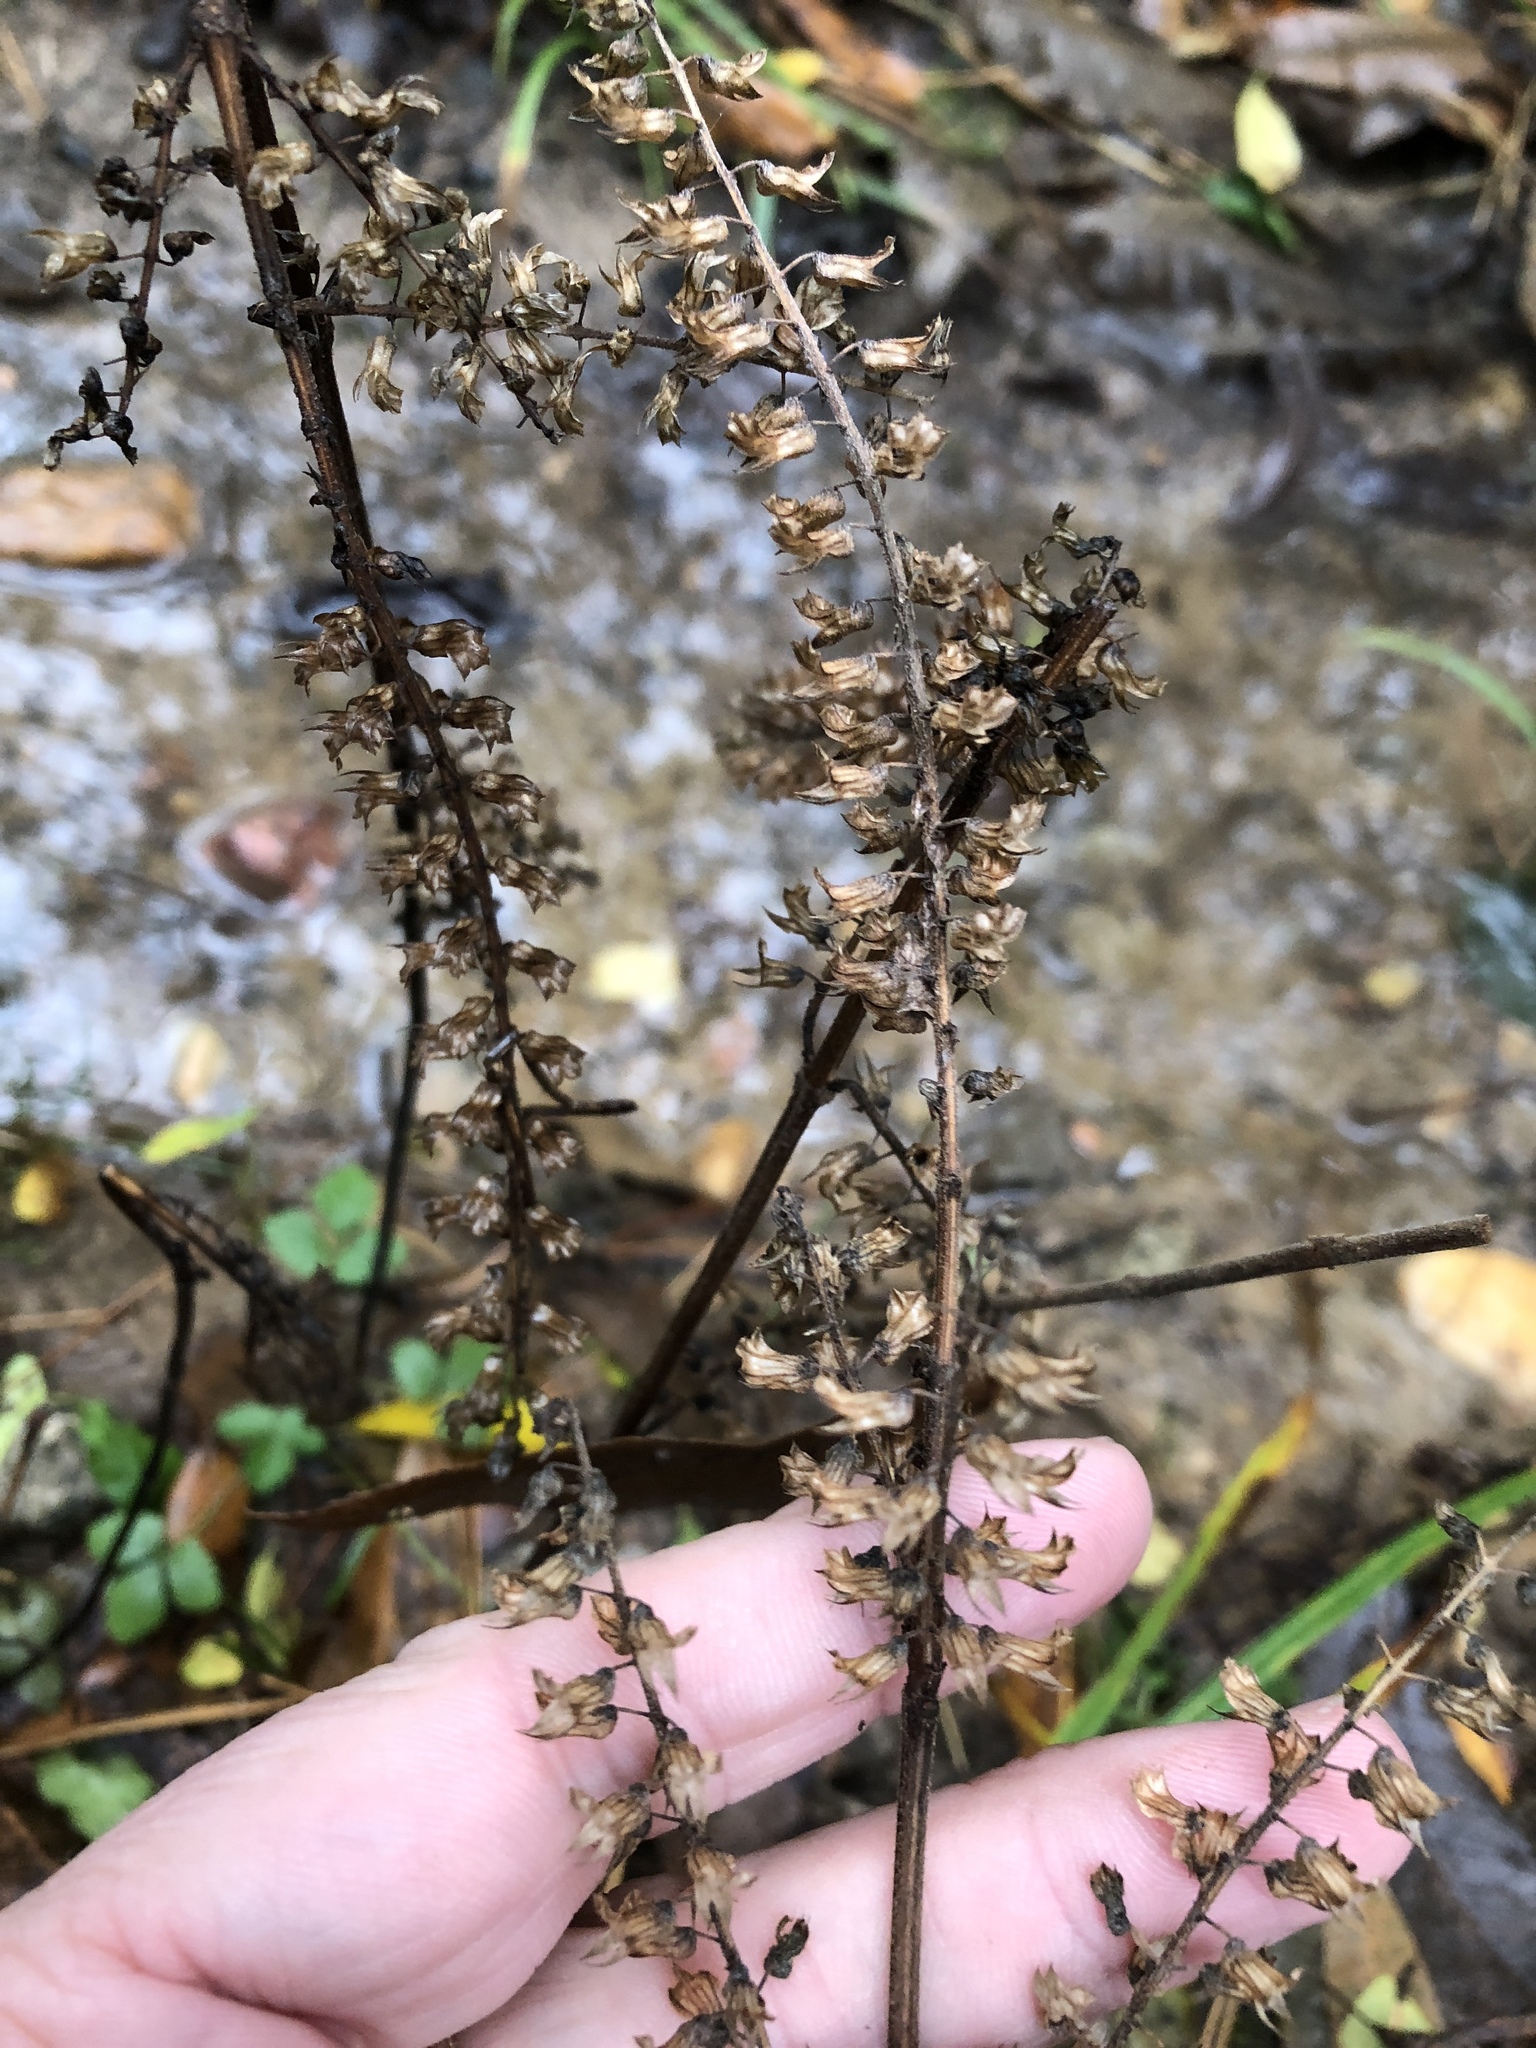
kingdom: Plantae
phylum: Tracheophyta
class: Magnoliopsida
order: Lamiales
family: Lamiaceae
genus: Perilla
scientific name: Perilla frutescens
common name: Perilla
